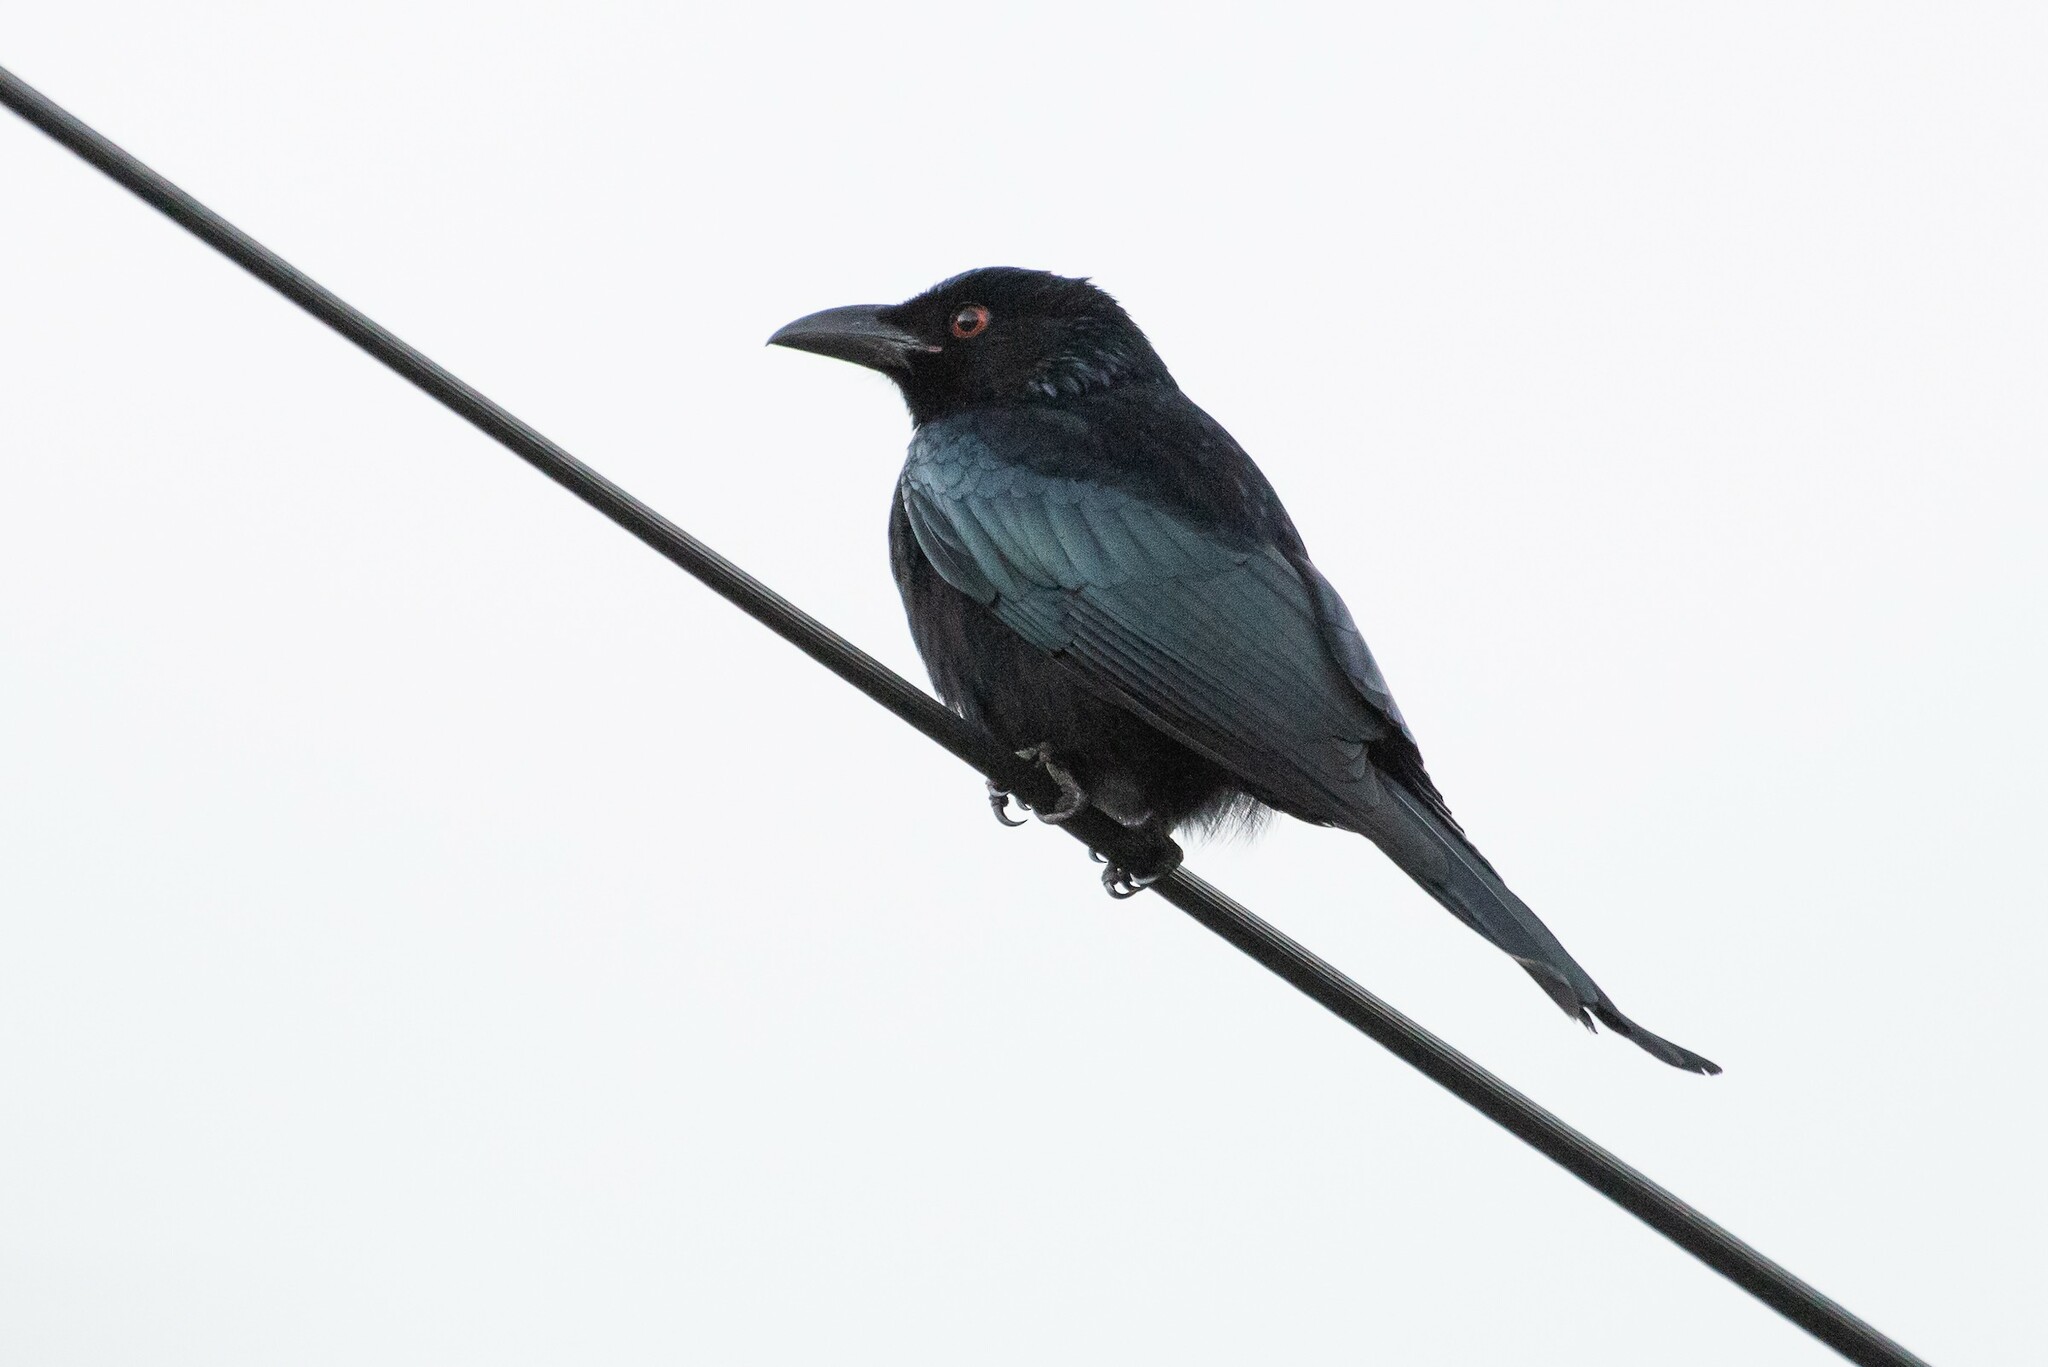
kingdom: Animalia
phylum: Chordata
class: Aves
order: Passeriformes
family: Dicruridae
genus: Dicrurus
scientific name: Dicrurus bracteatus
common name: Spangled drongo
